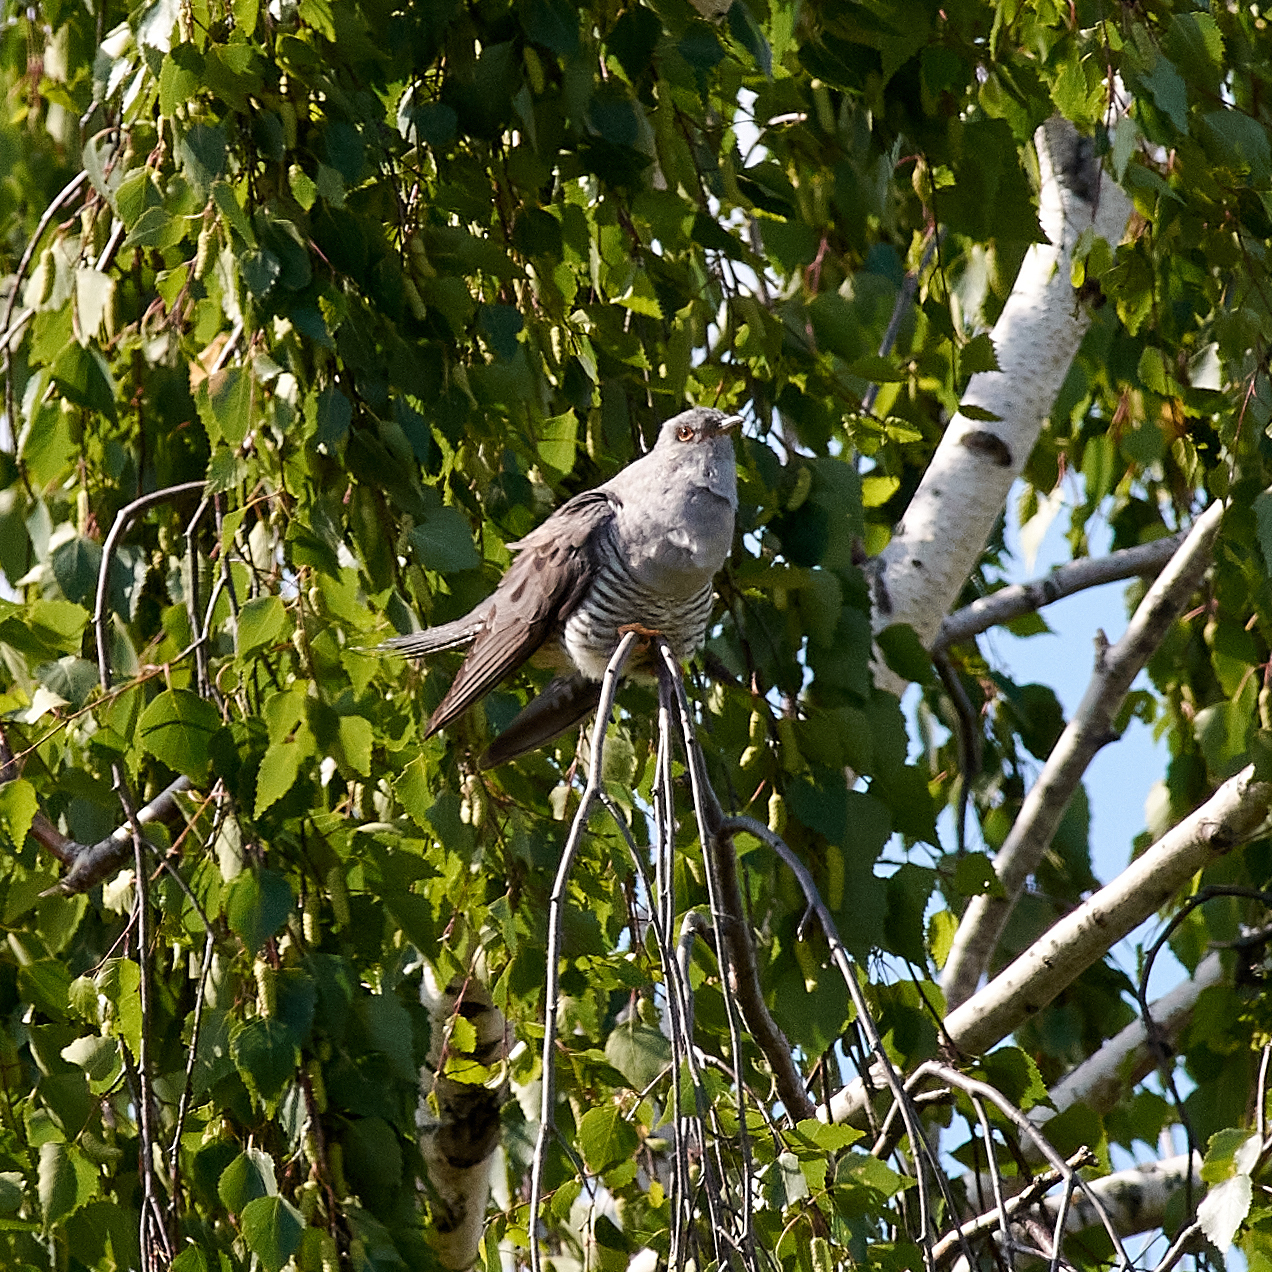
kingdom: Animalia
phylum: Chordata
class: Aves
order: Cuculiformes
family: Cuculidae
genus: Cuculus
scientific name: Cuculus canorus
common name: Common cuckoo
